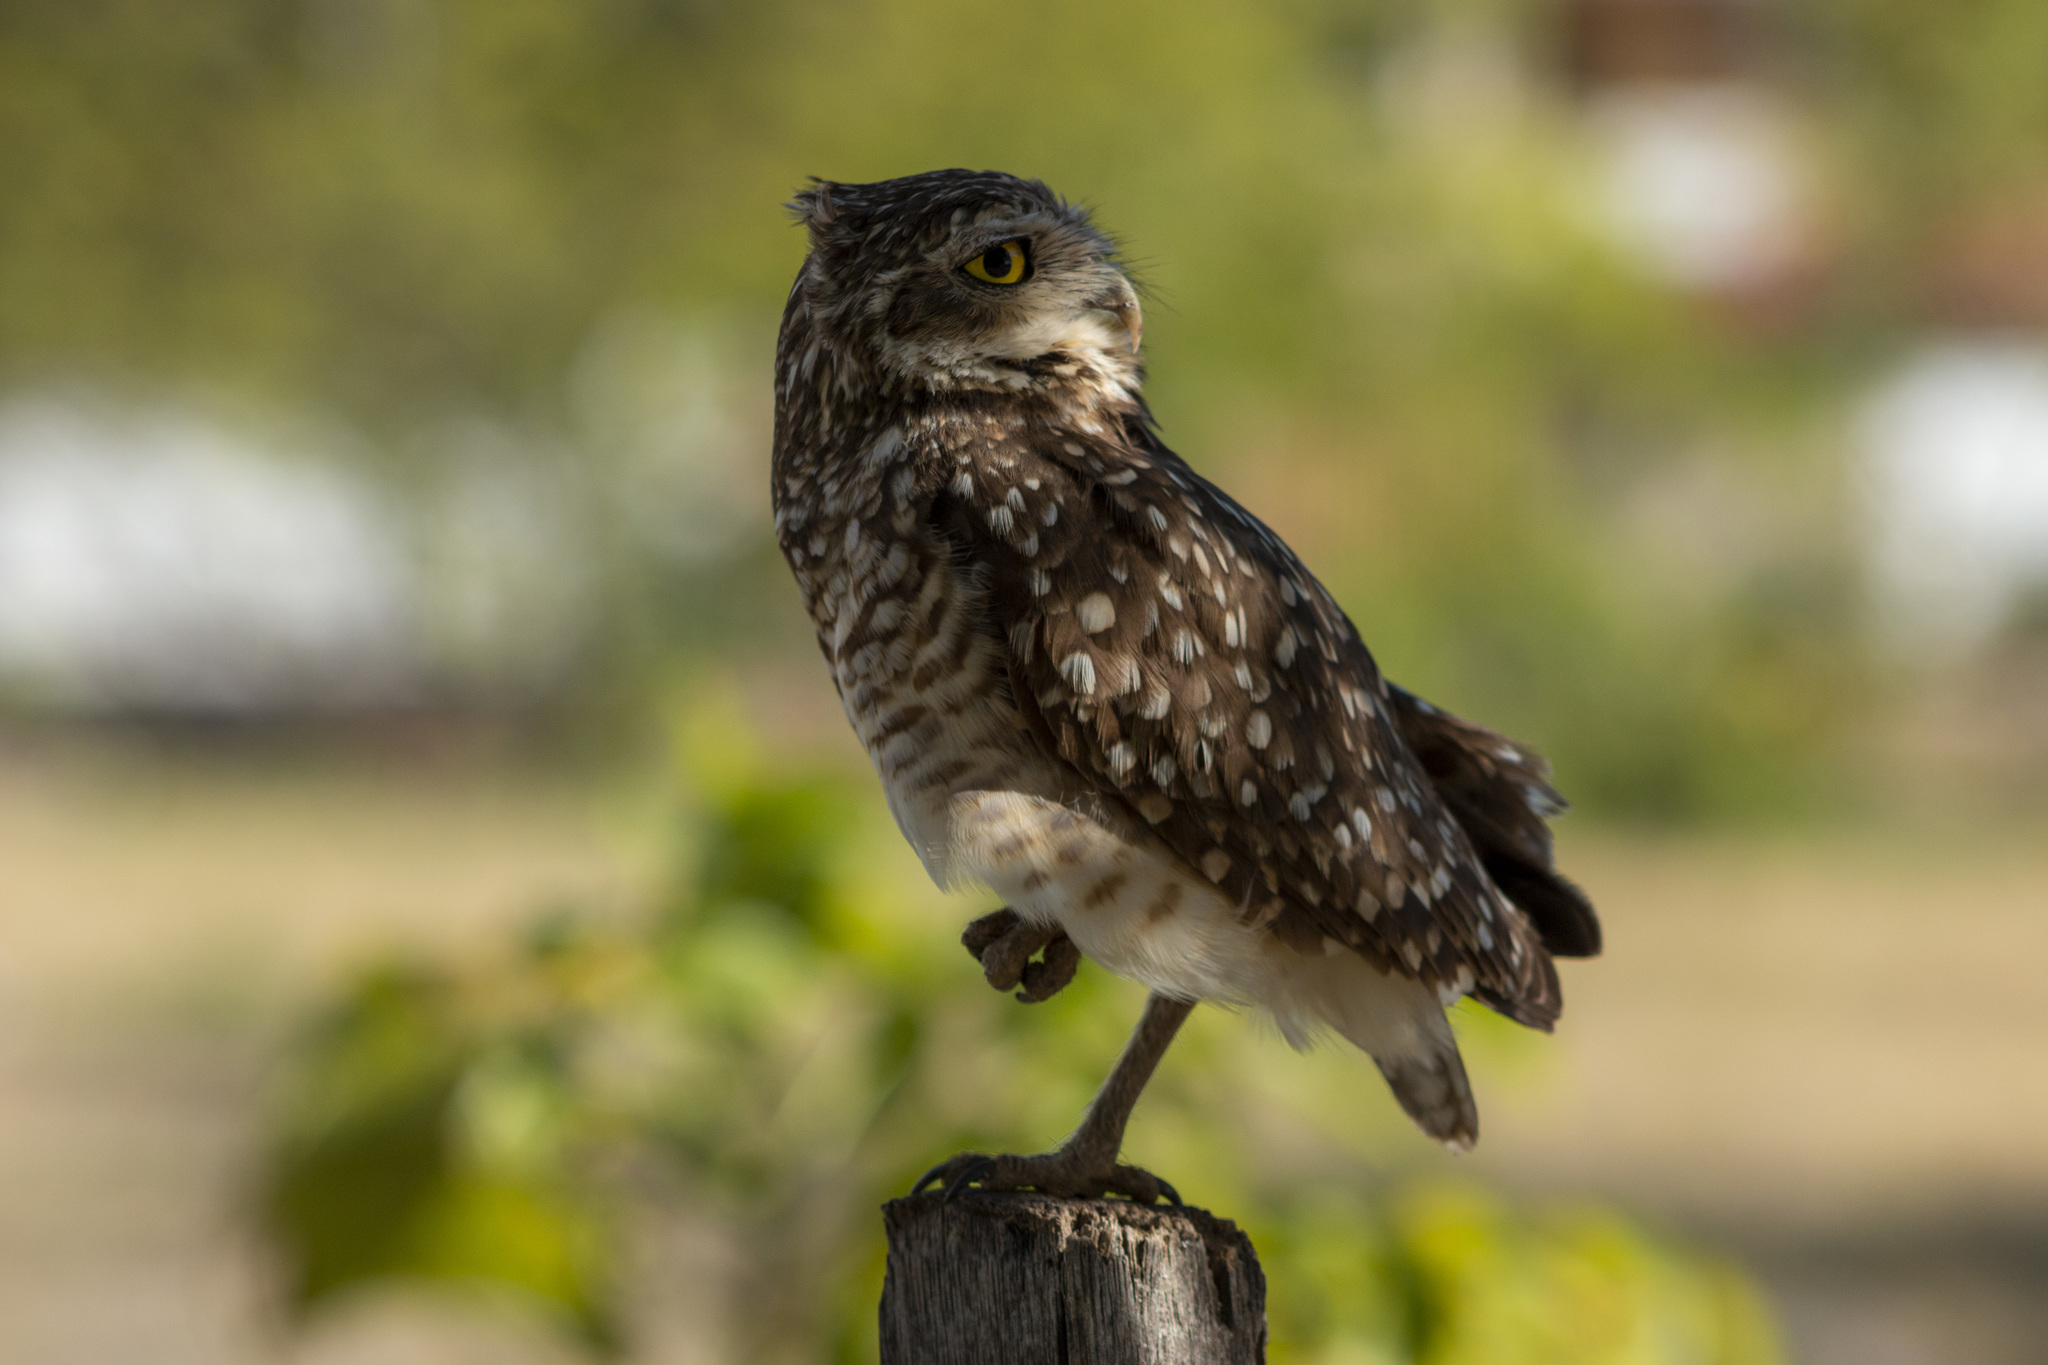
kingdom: Animalia
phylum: Chordata
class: Aves
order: Strigiformes
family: Strigidae
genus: Athene
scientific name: Athene cunicularia
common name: Burrowing owl
